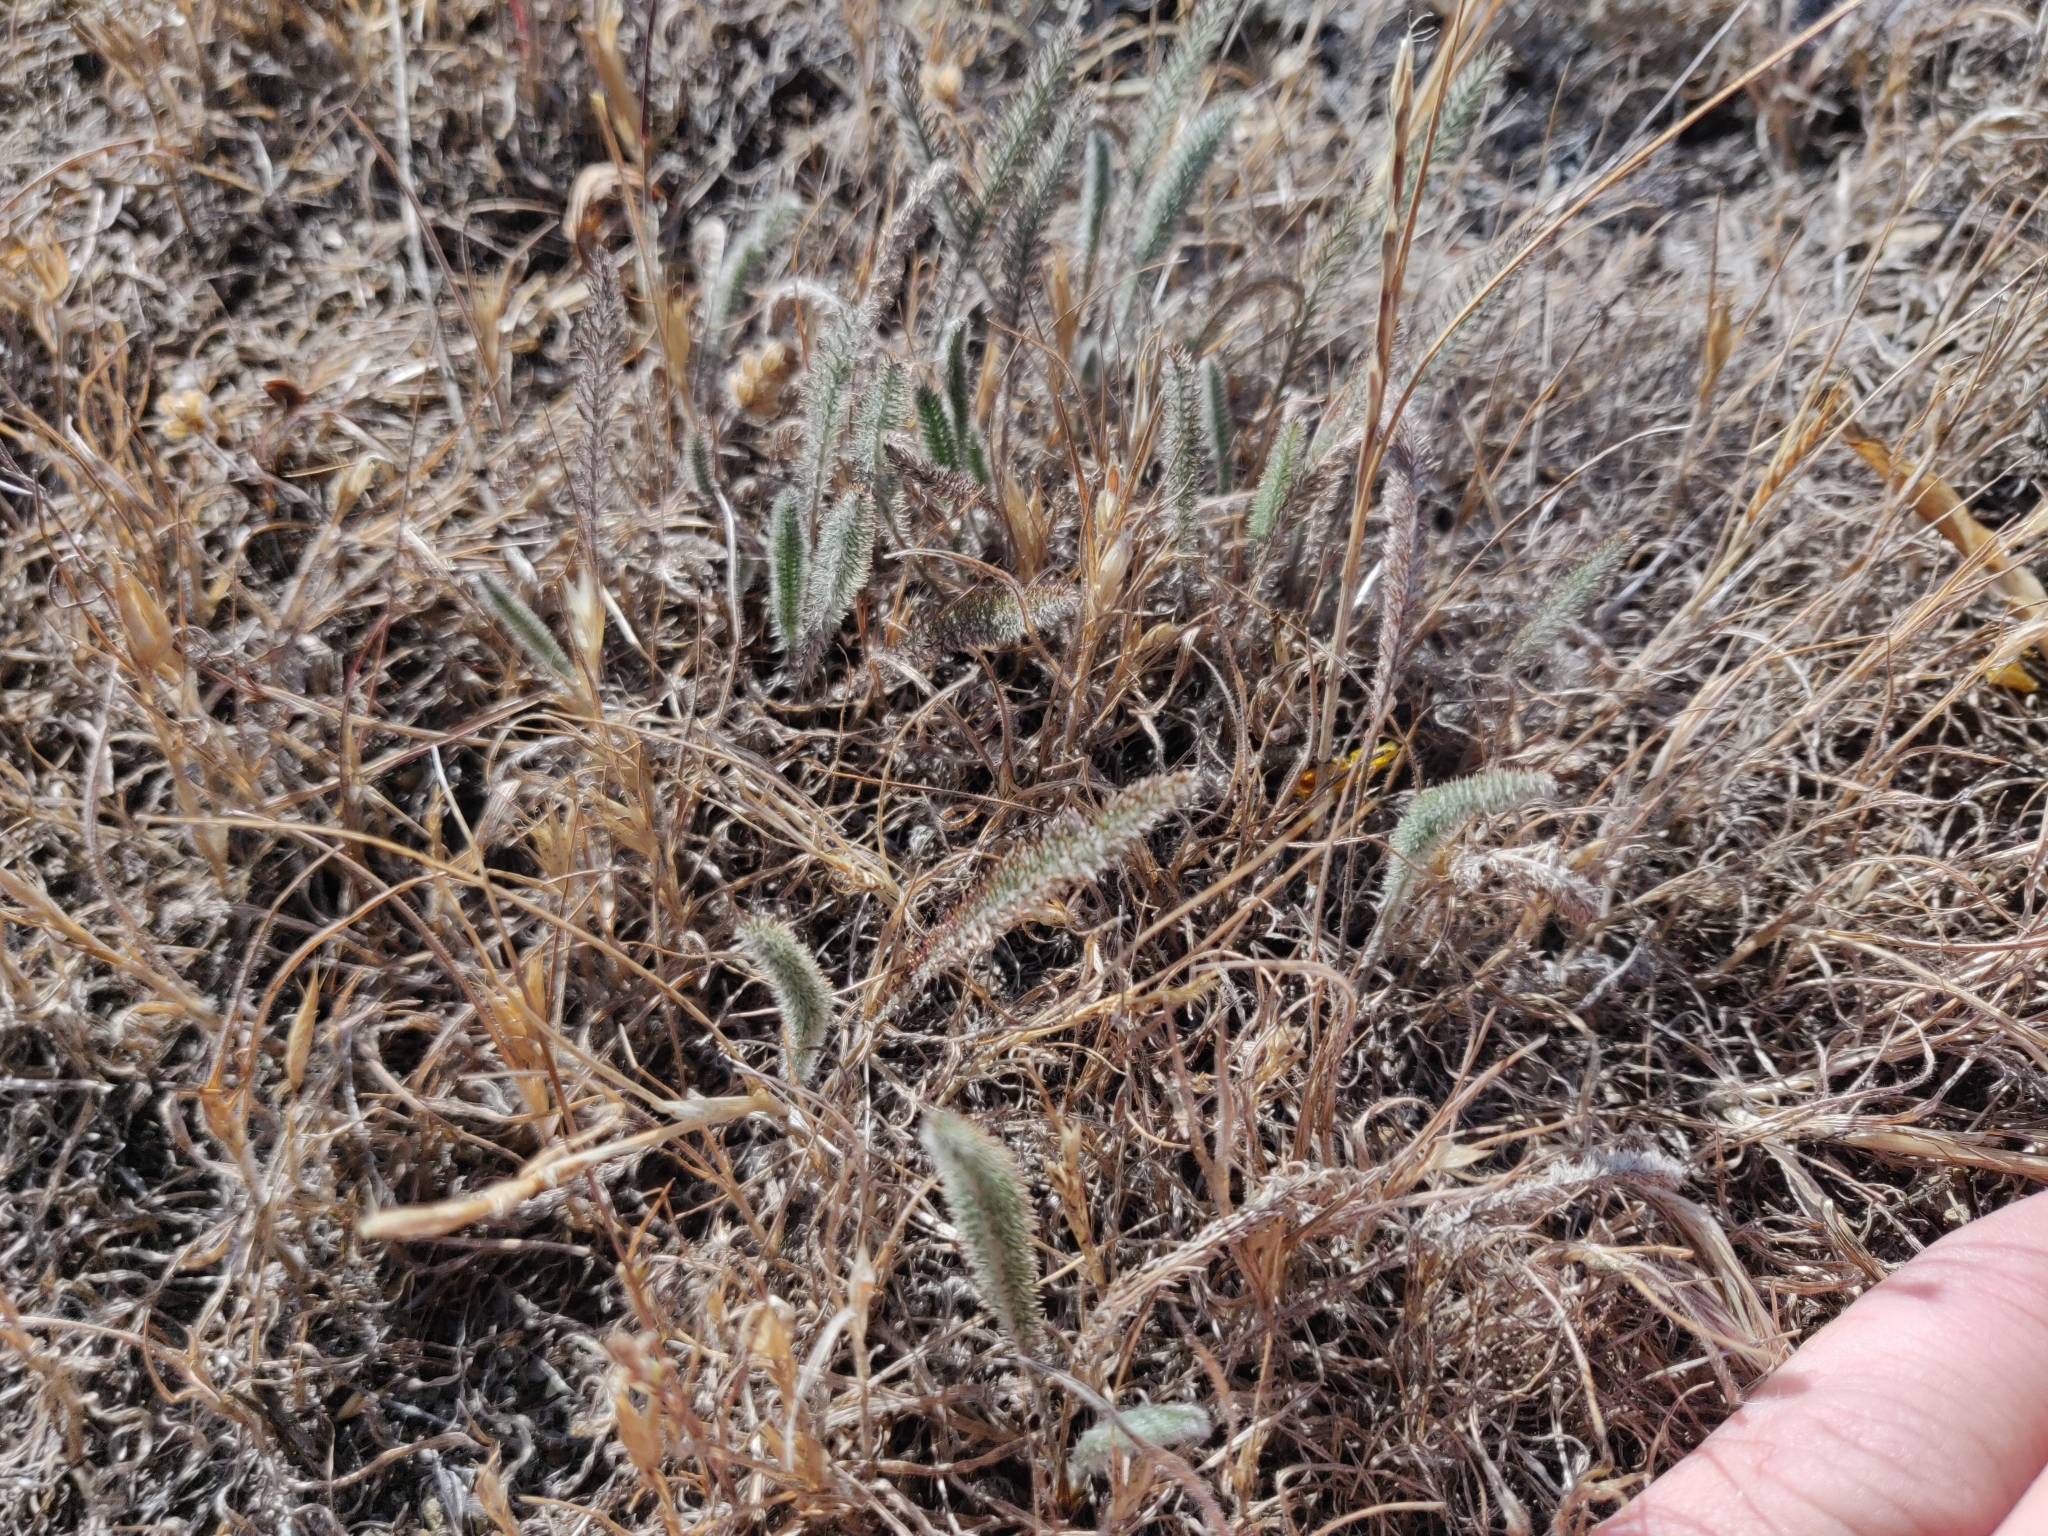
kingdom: Plantae
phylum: Tracheophyta
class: Magnoliopsida
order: Asterales
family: Asteraceae
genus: Achillea
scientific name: Achillea millefolium
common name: Yarrow
